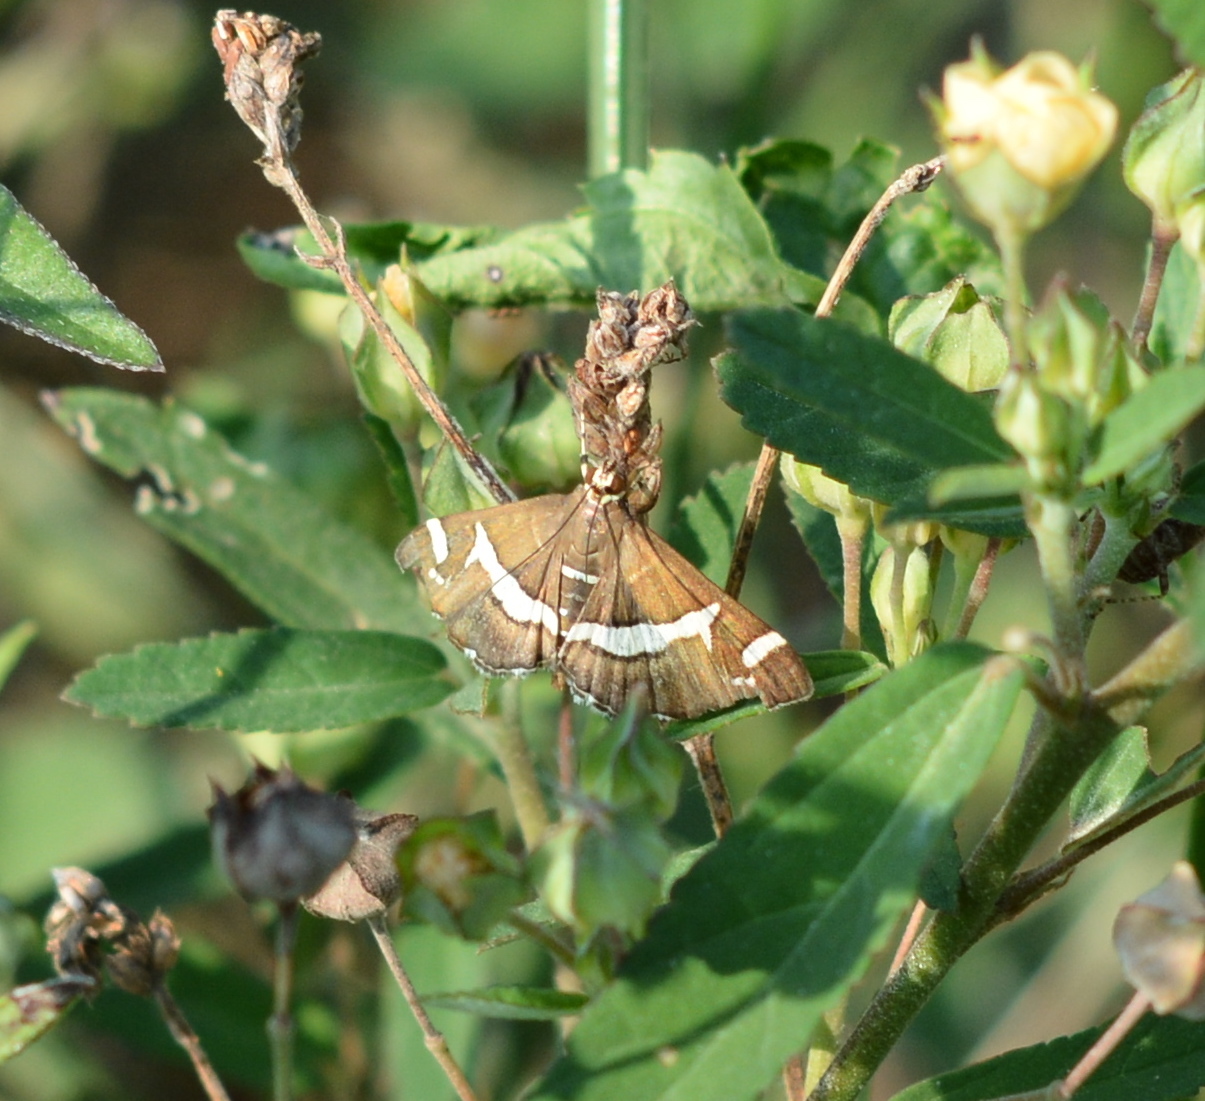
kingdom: Animalia
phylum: Arthropoda
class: Insecta
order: Lepidoptera
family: Crambidae
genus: Spoladea
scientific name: Spoladea recurvalis
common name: Beet webworm moth
